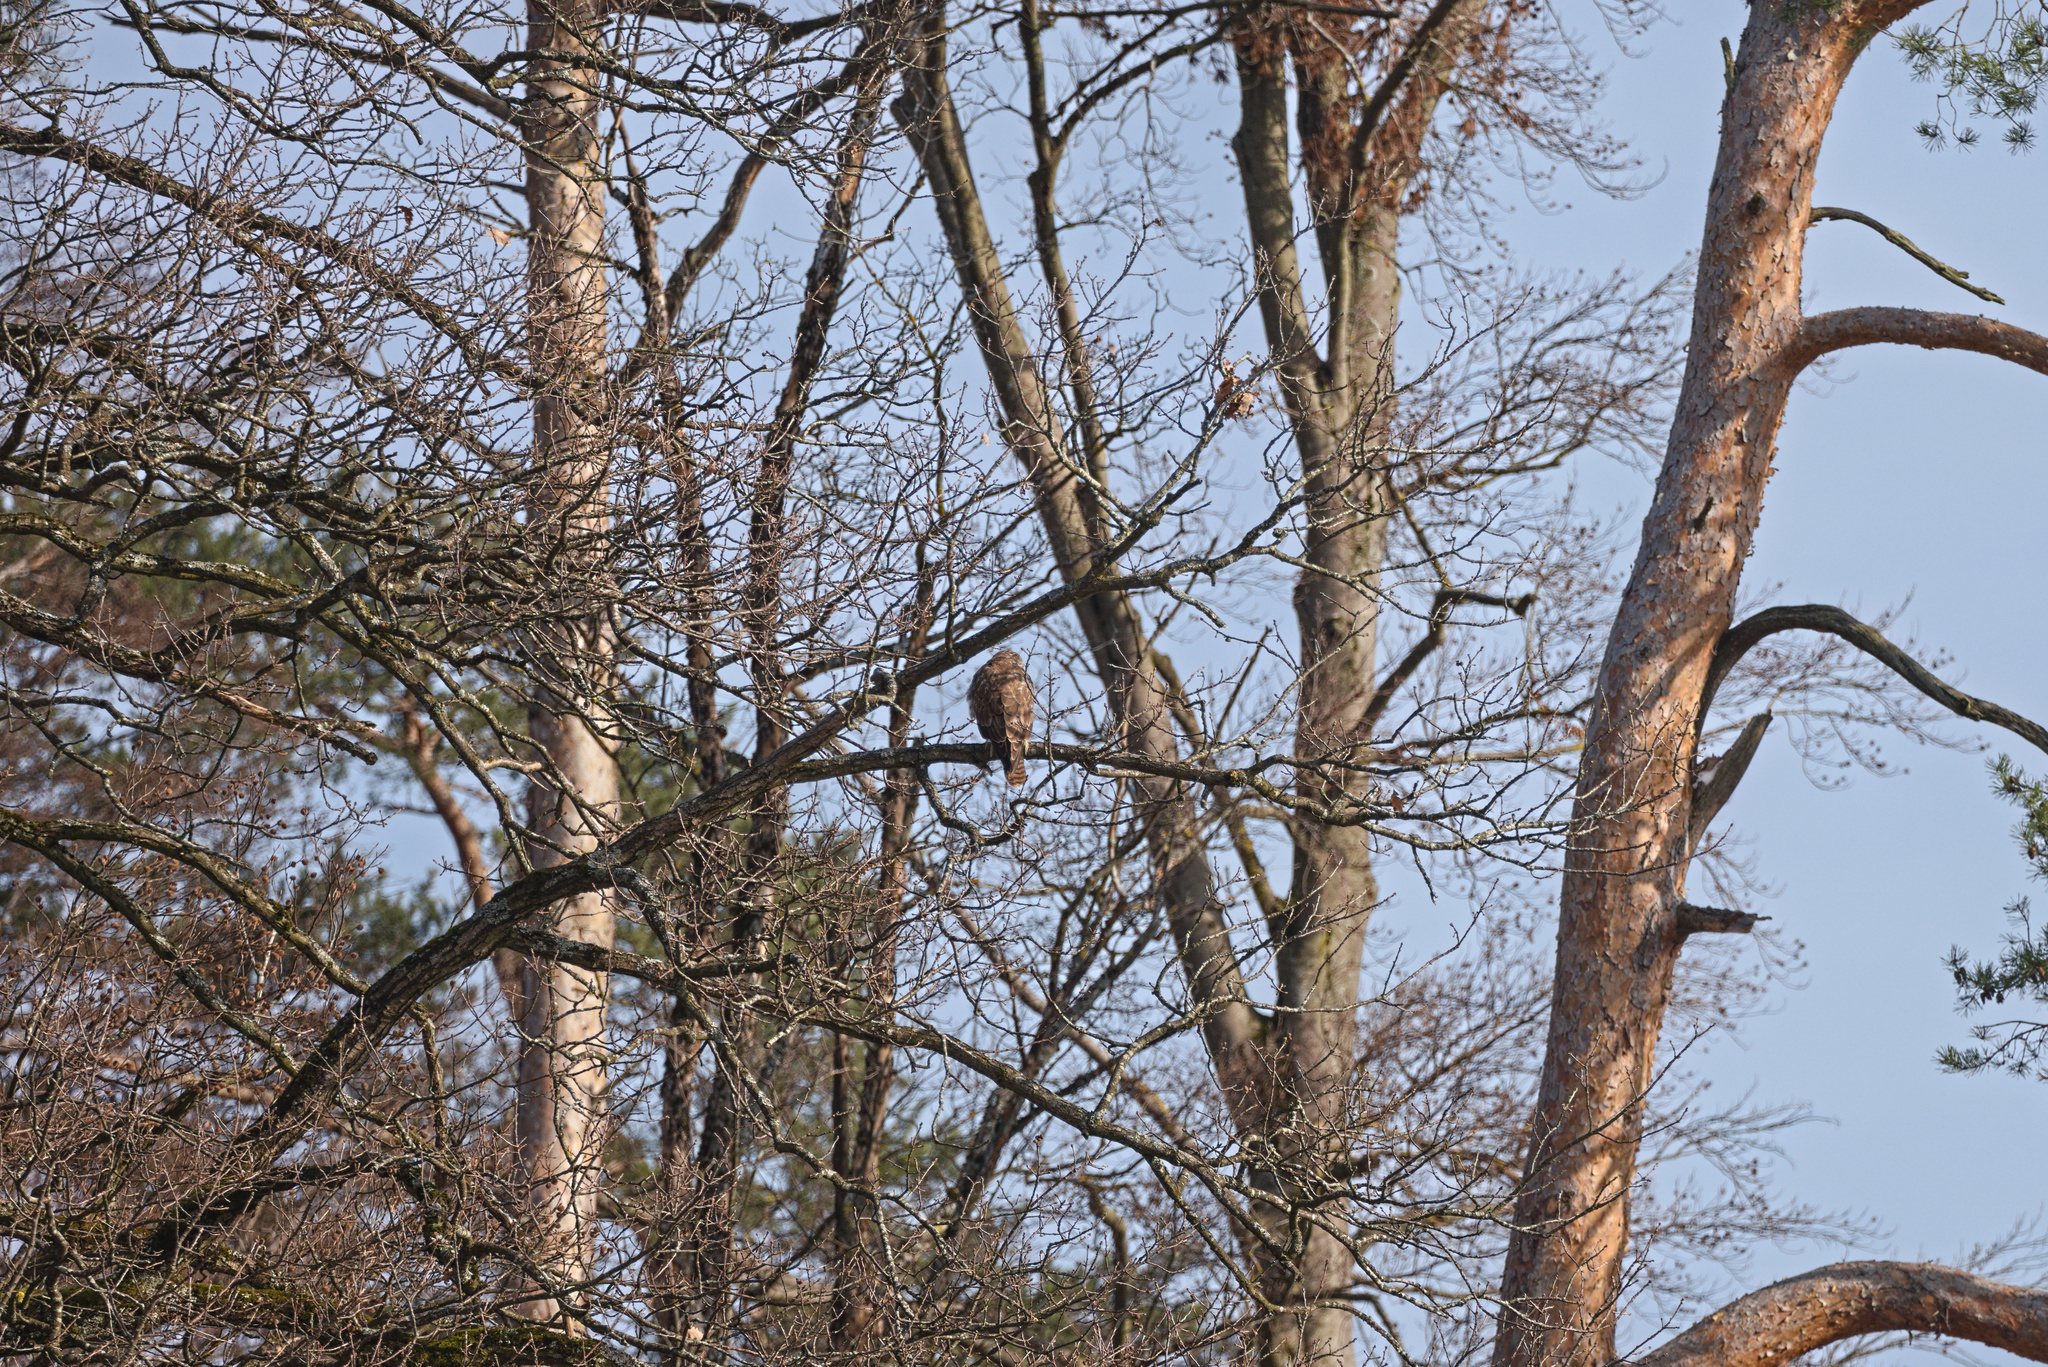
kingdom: Animalia
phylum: Chordata
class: Aves
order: Accipitriformes
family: Accipitridae
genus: Buteo
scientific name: Buteo buteo
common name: Common buzzard
